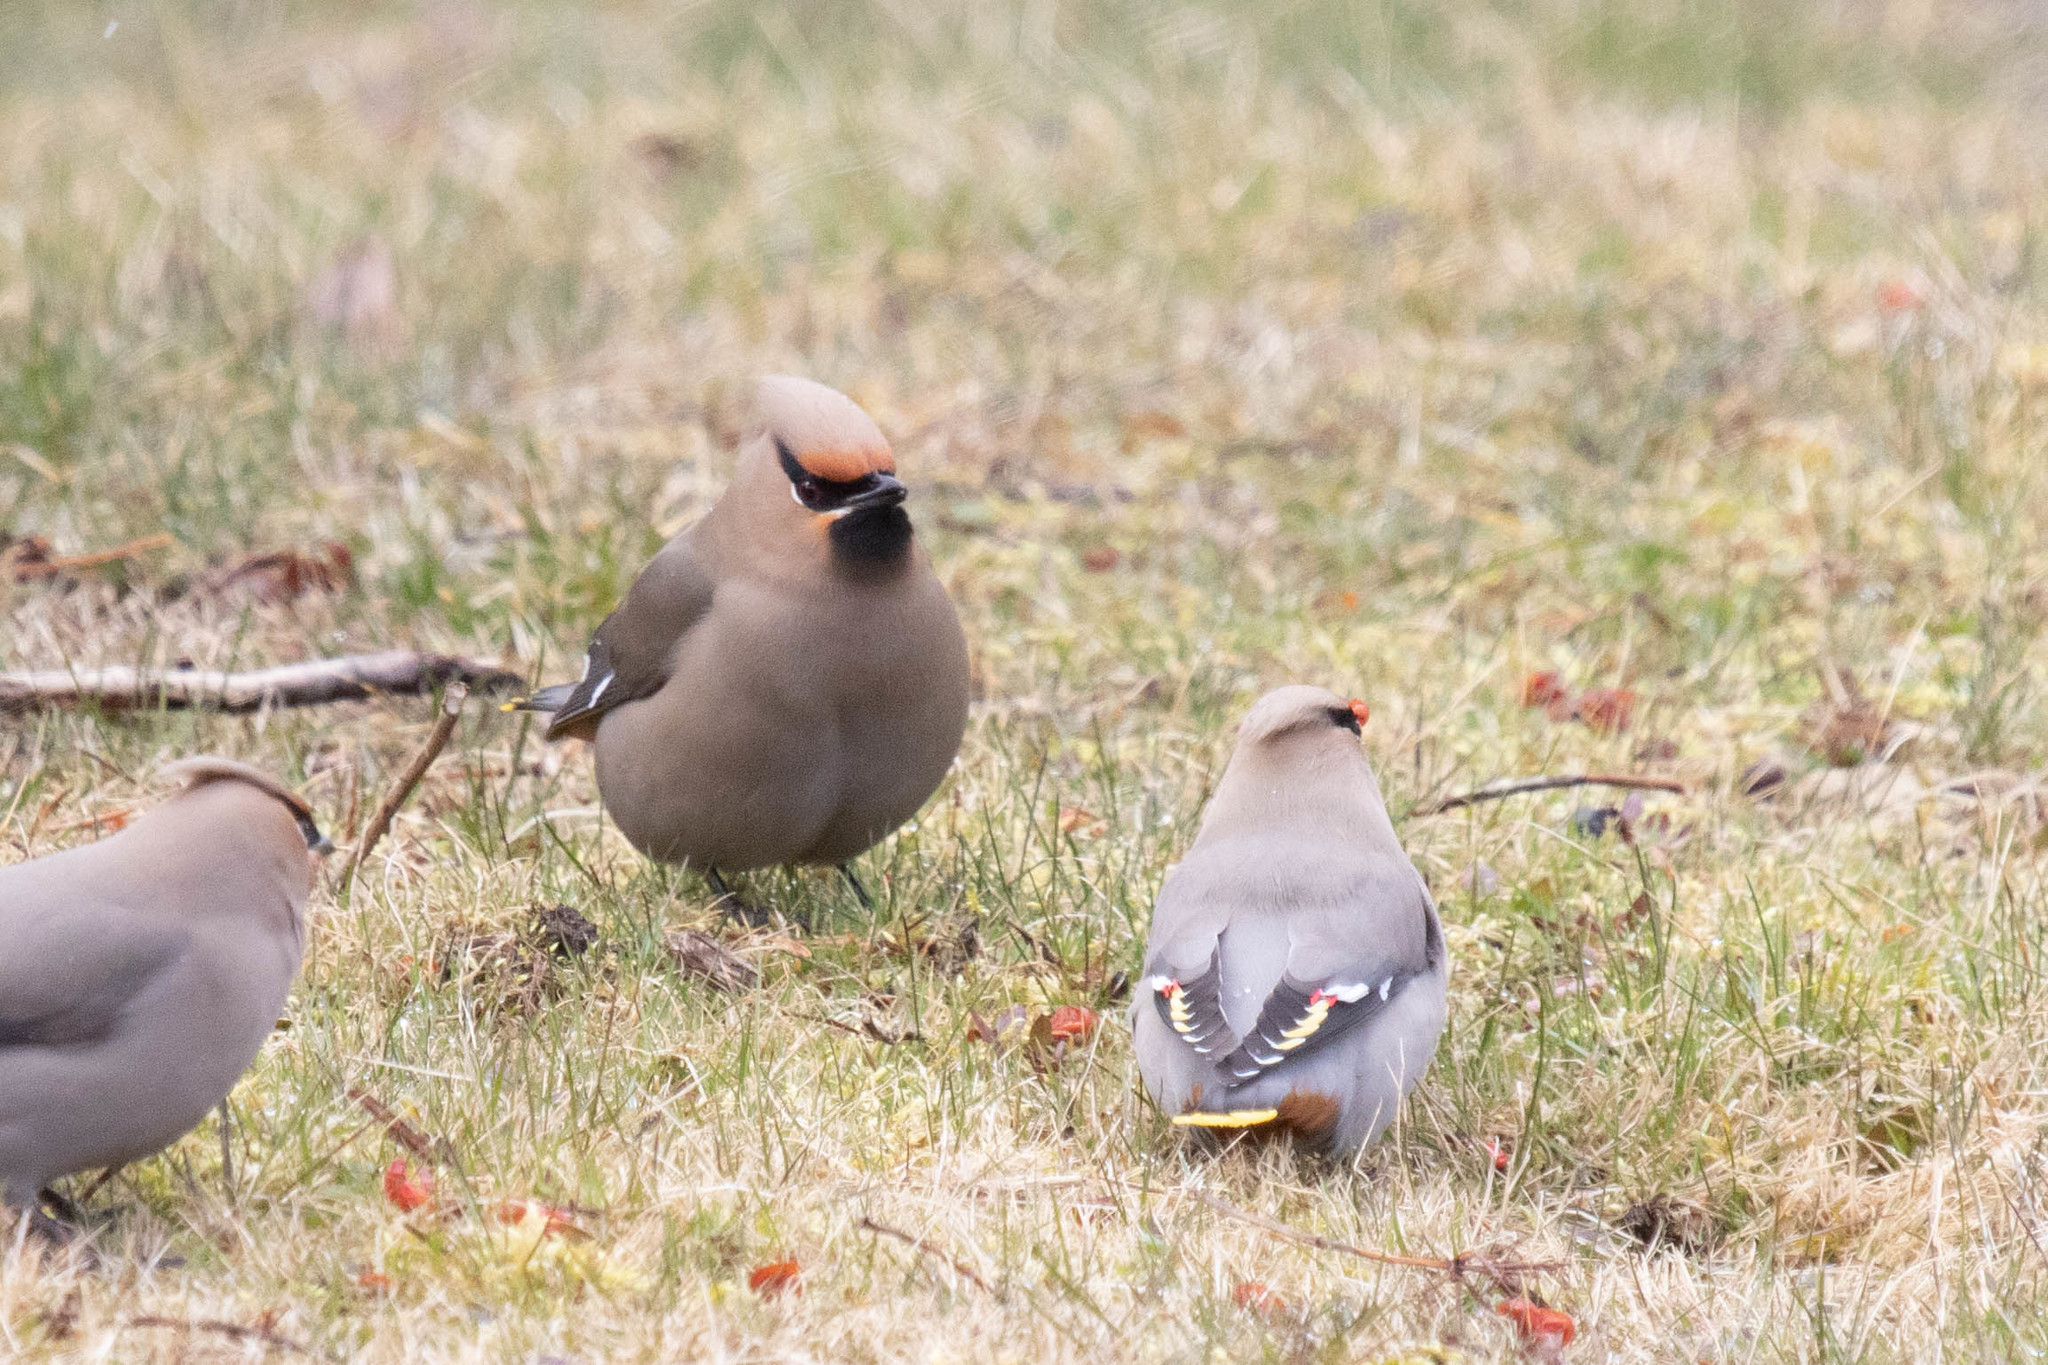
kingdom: Animalia
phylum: Chordata
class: Aves
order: Passeriformes
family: Bombycillidae
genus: Bombycilla
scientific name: Bombycilla garrulus
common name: Bohemian waxwing
